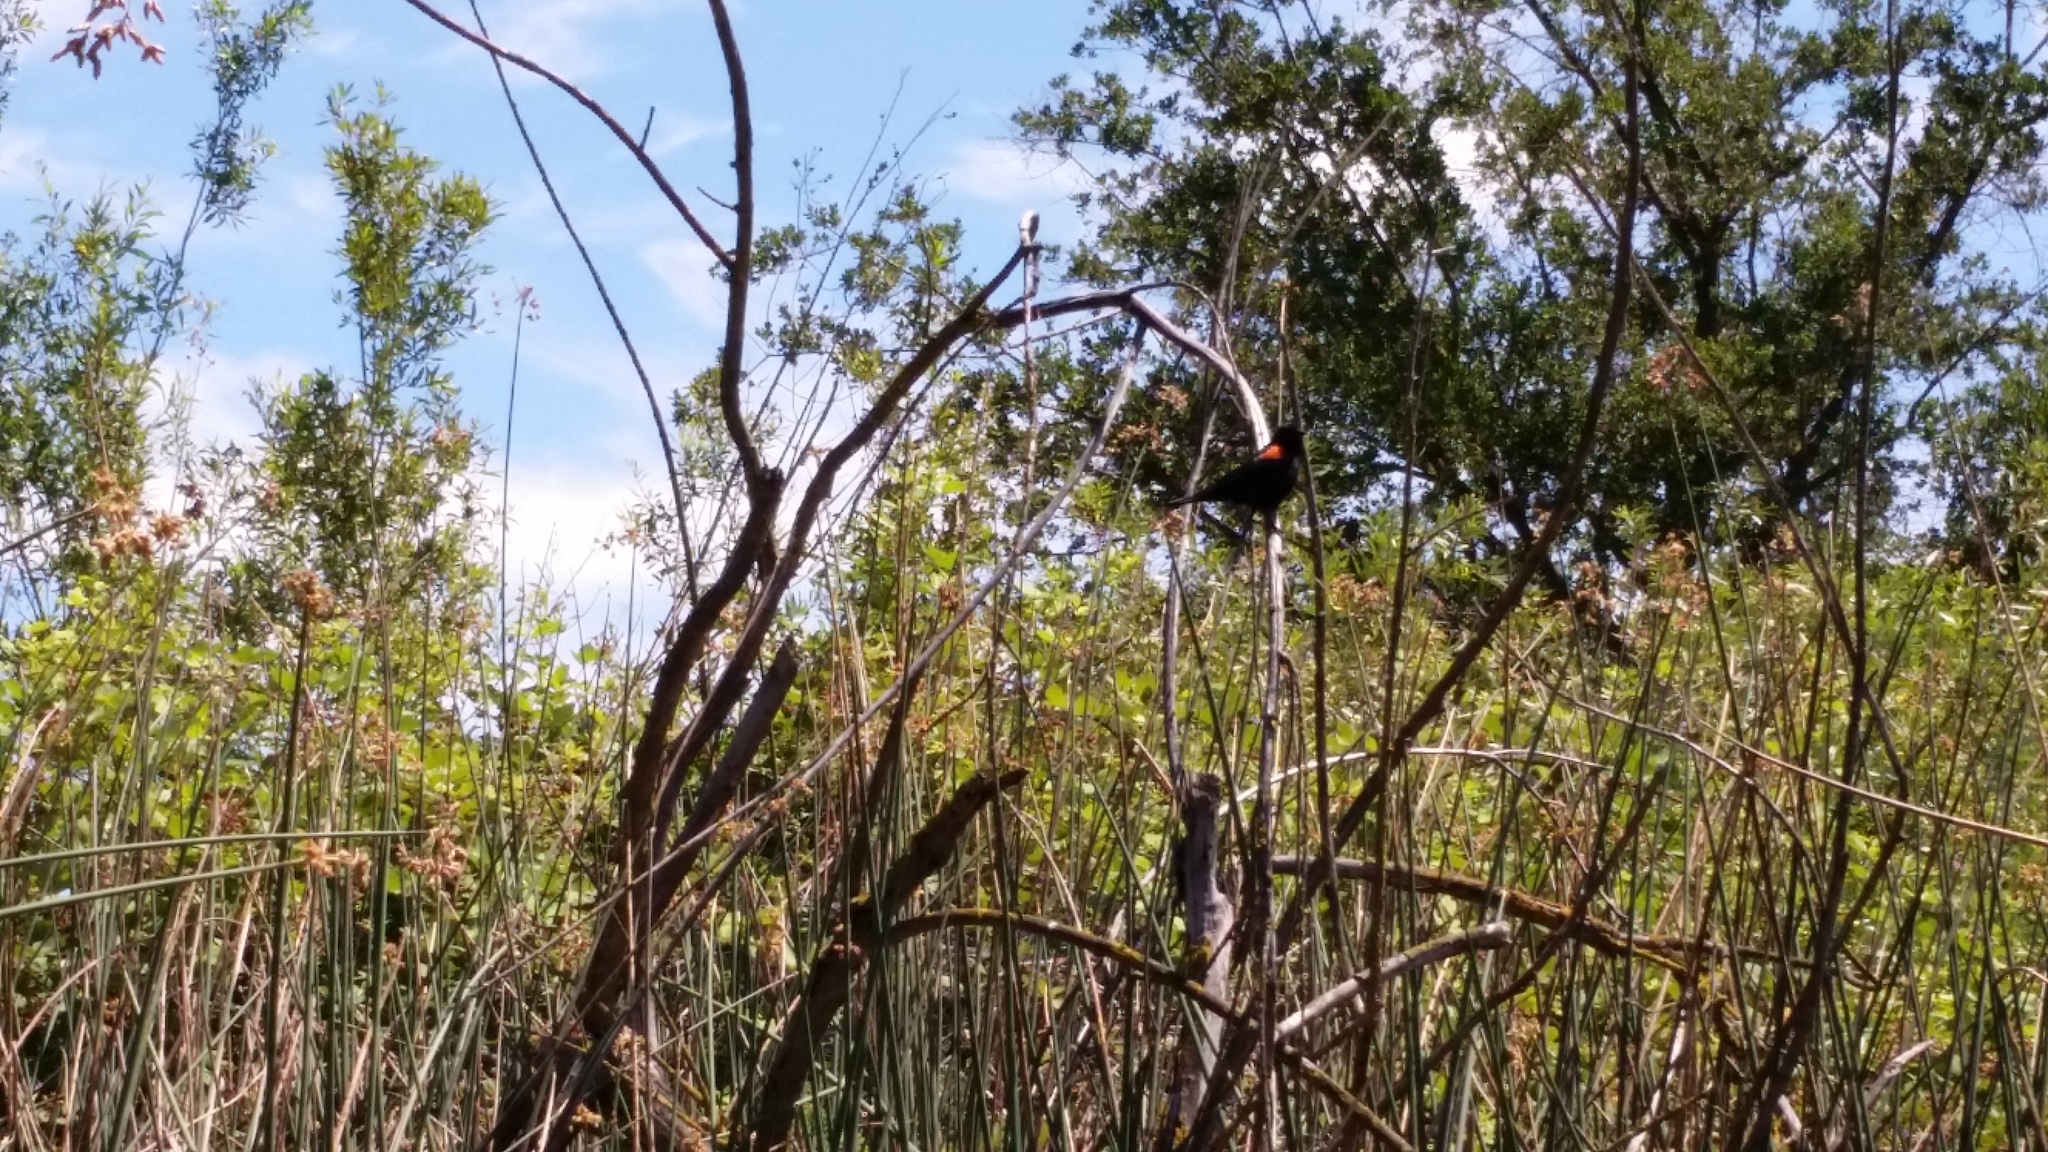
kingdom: Animalia
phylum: Chordata
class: Aves
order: Passeriformes
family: Icteridae
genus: Agelaius
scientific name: Agelaius phoeniceus
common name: Red-winged blackbird
